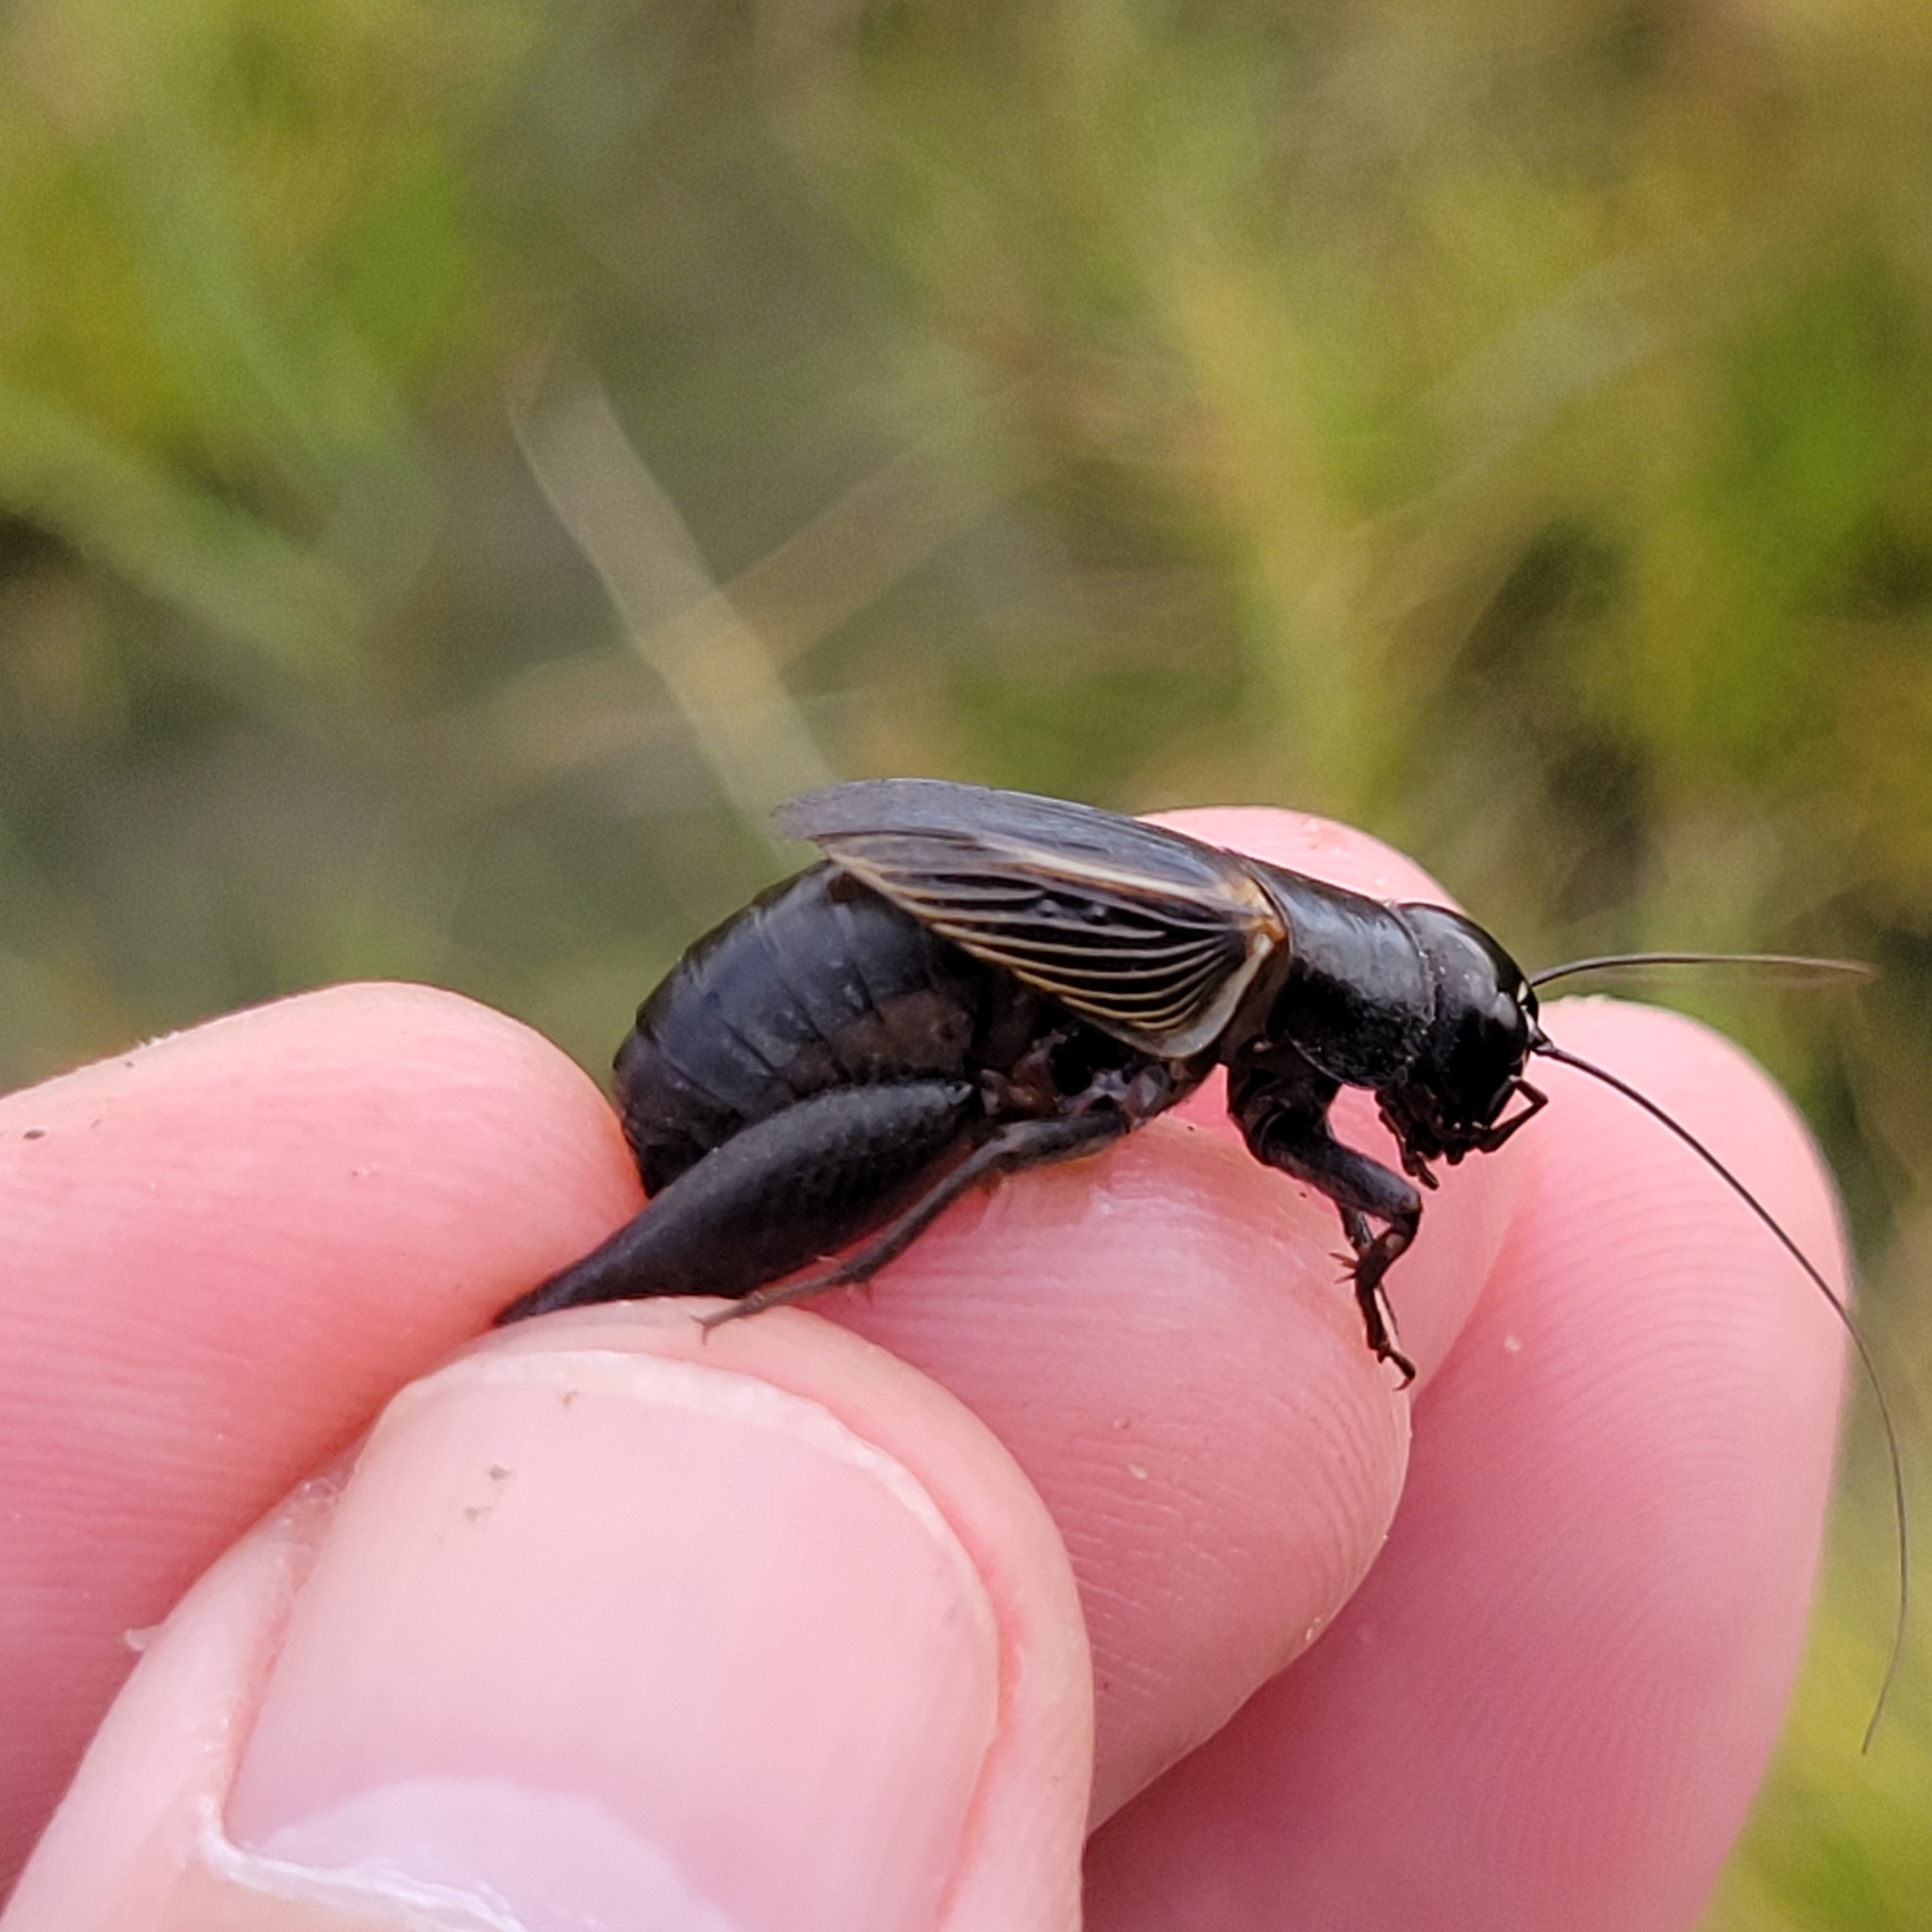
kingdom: Animalia
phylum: Arthropoda
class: Insecta
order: Orthoptera
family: Gryllidae
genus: Gryllus
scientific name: Gryllus pennsylvanicus
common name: Fall field cricket
